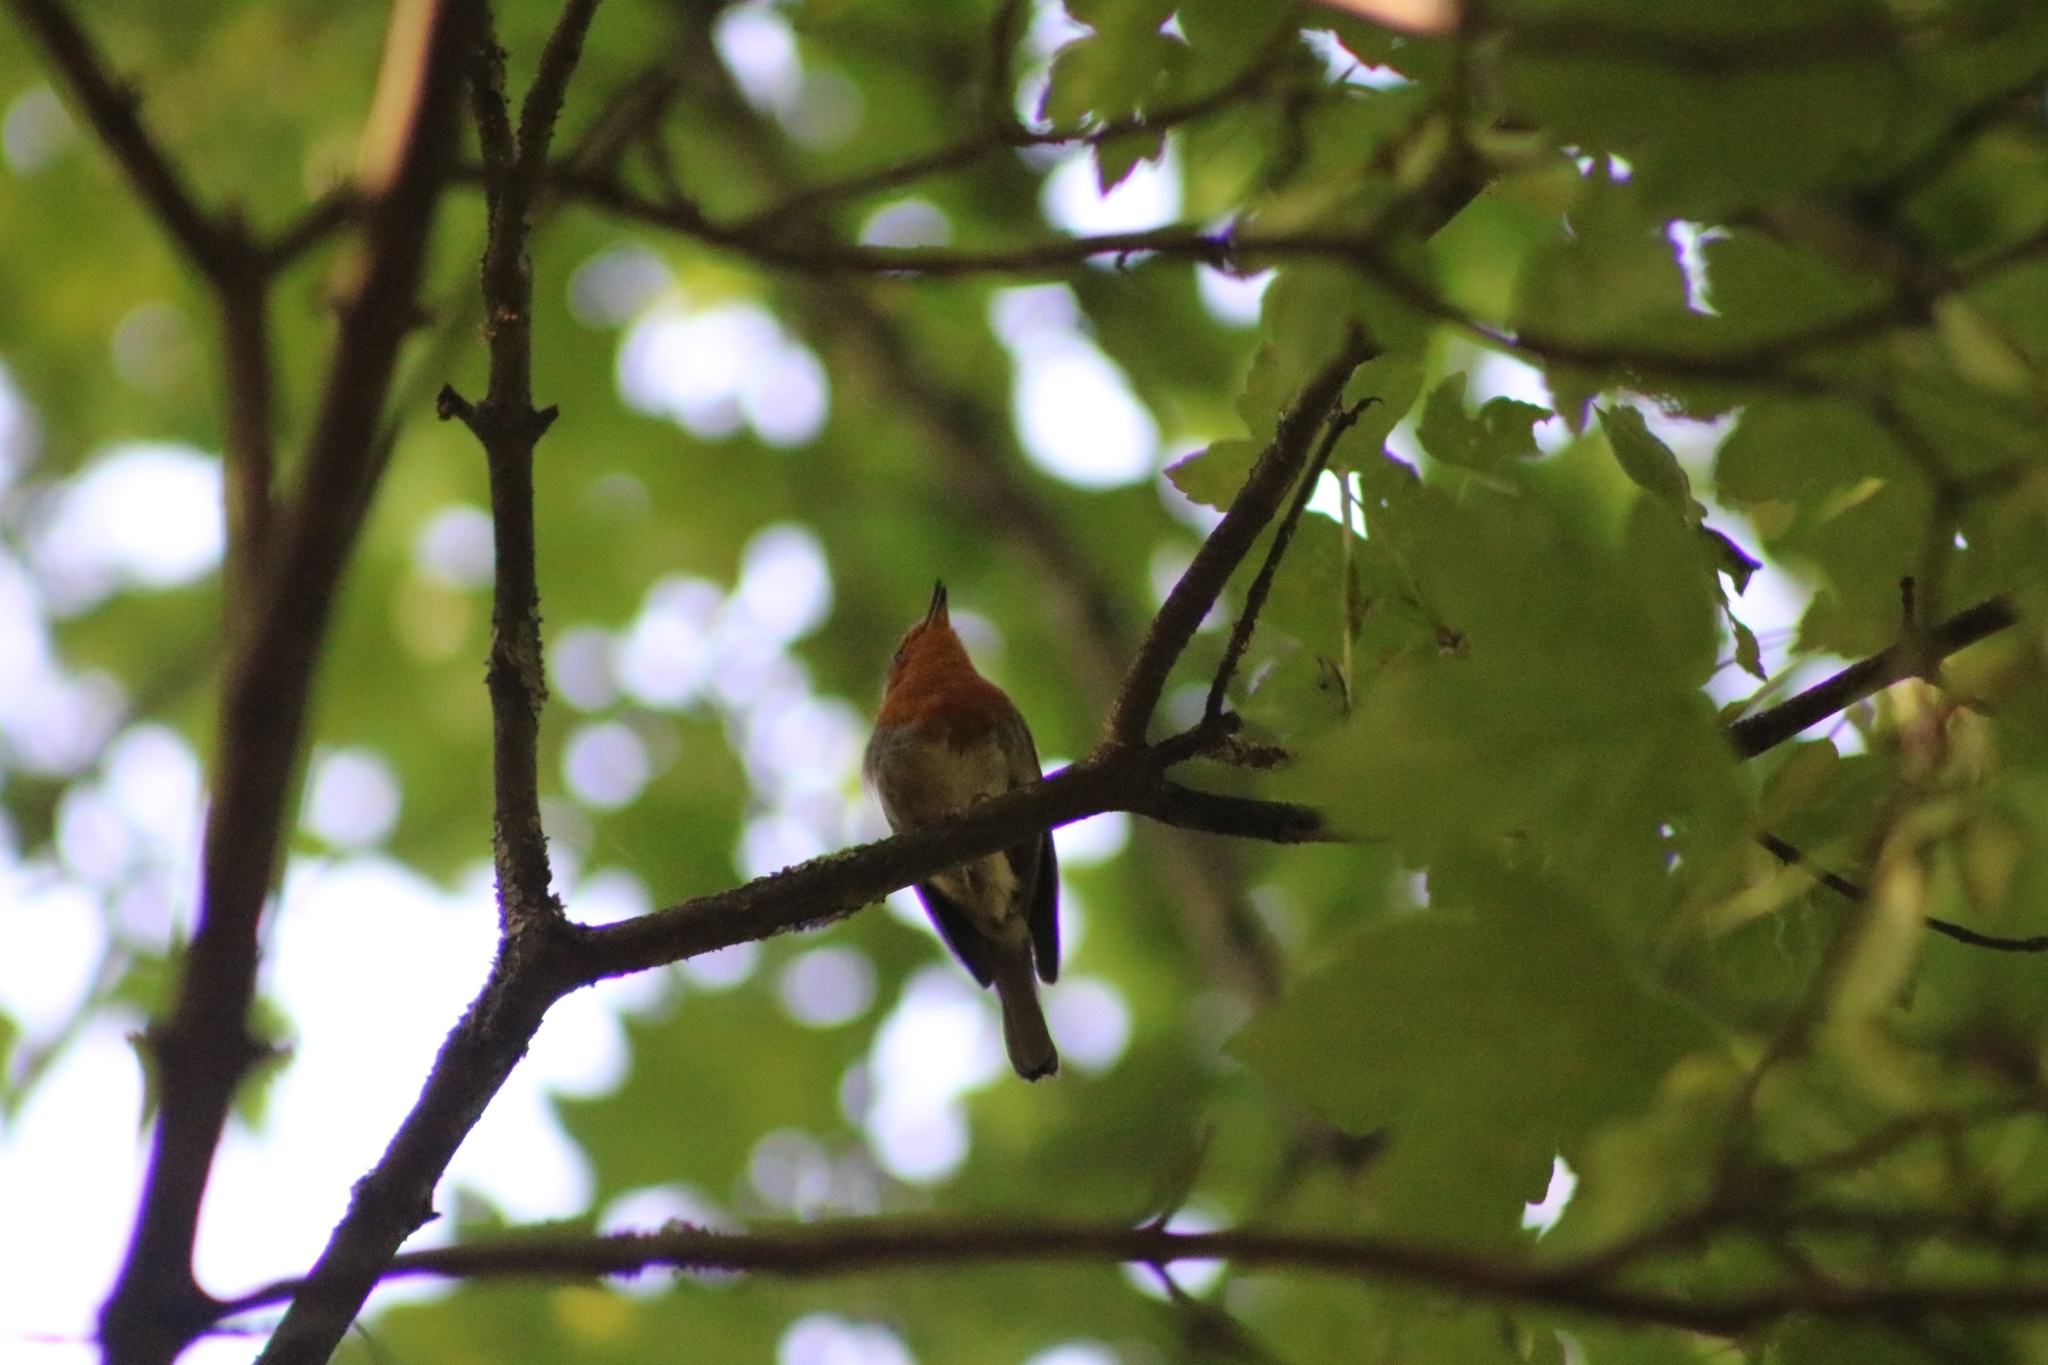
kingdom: Animalia
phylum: Chordata
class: Aves
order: Passeriformes
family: Muscicapidae
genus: Erithacus
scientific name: Erithacus rubecula
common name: European robin
